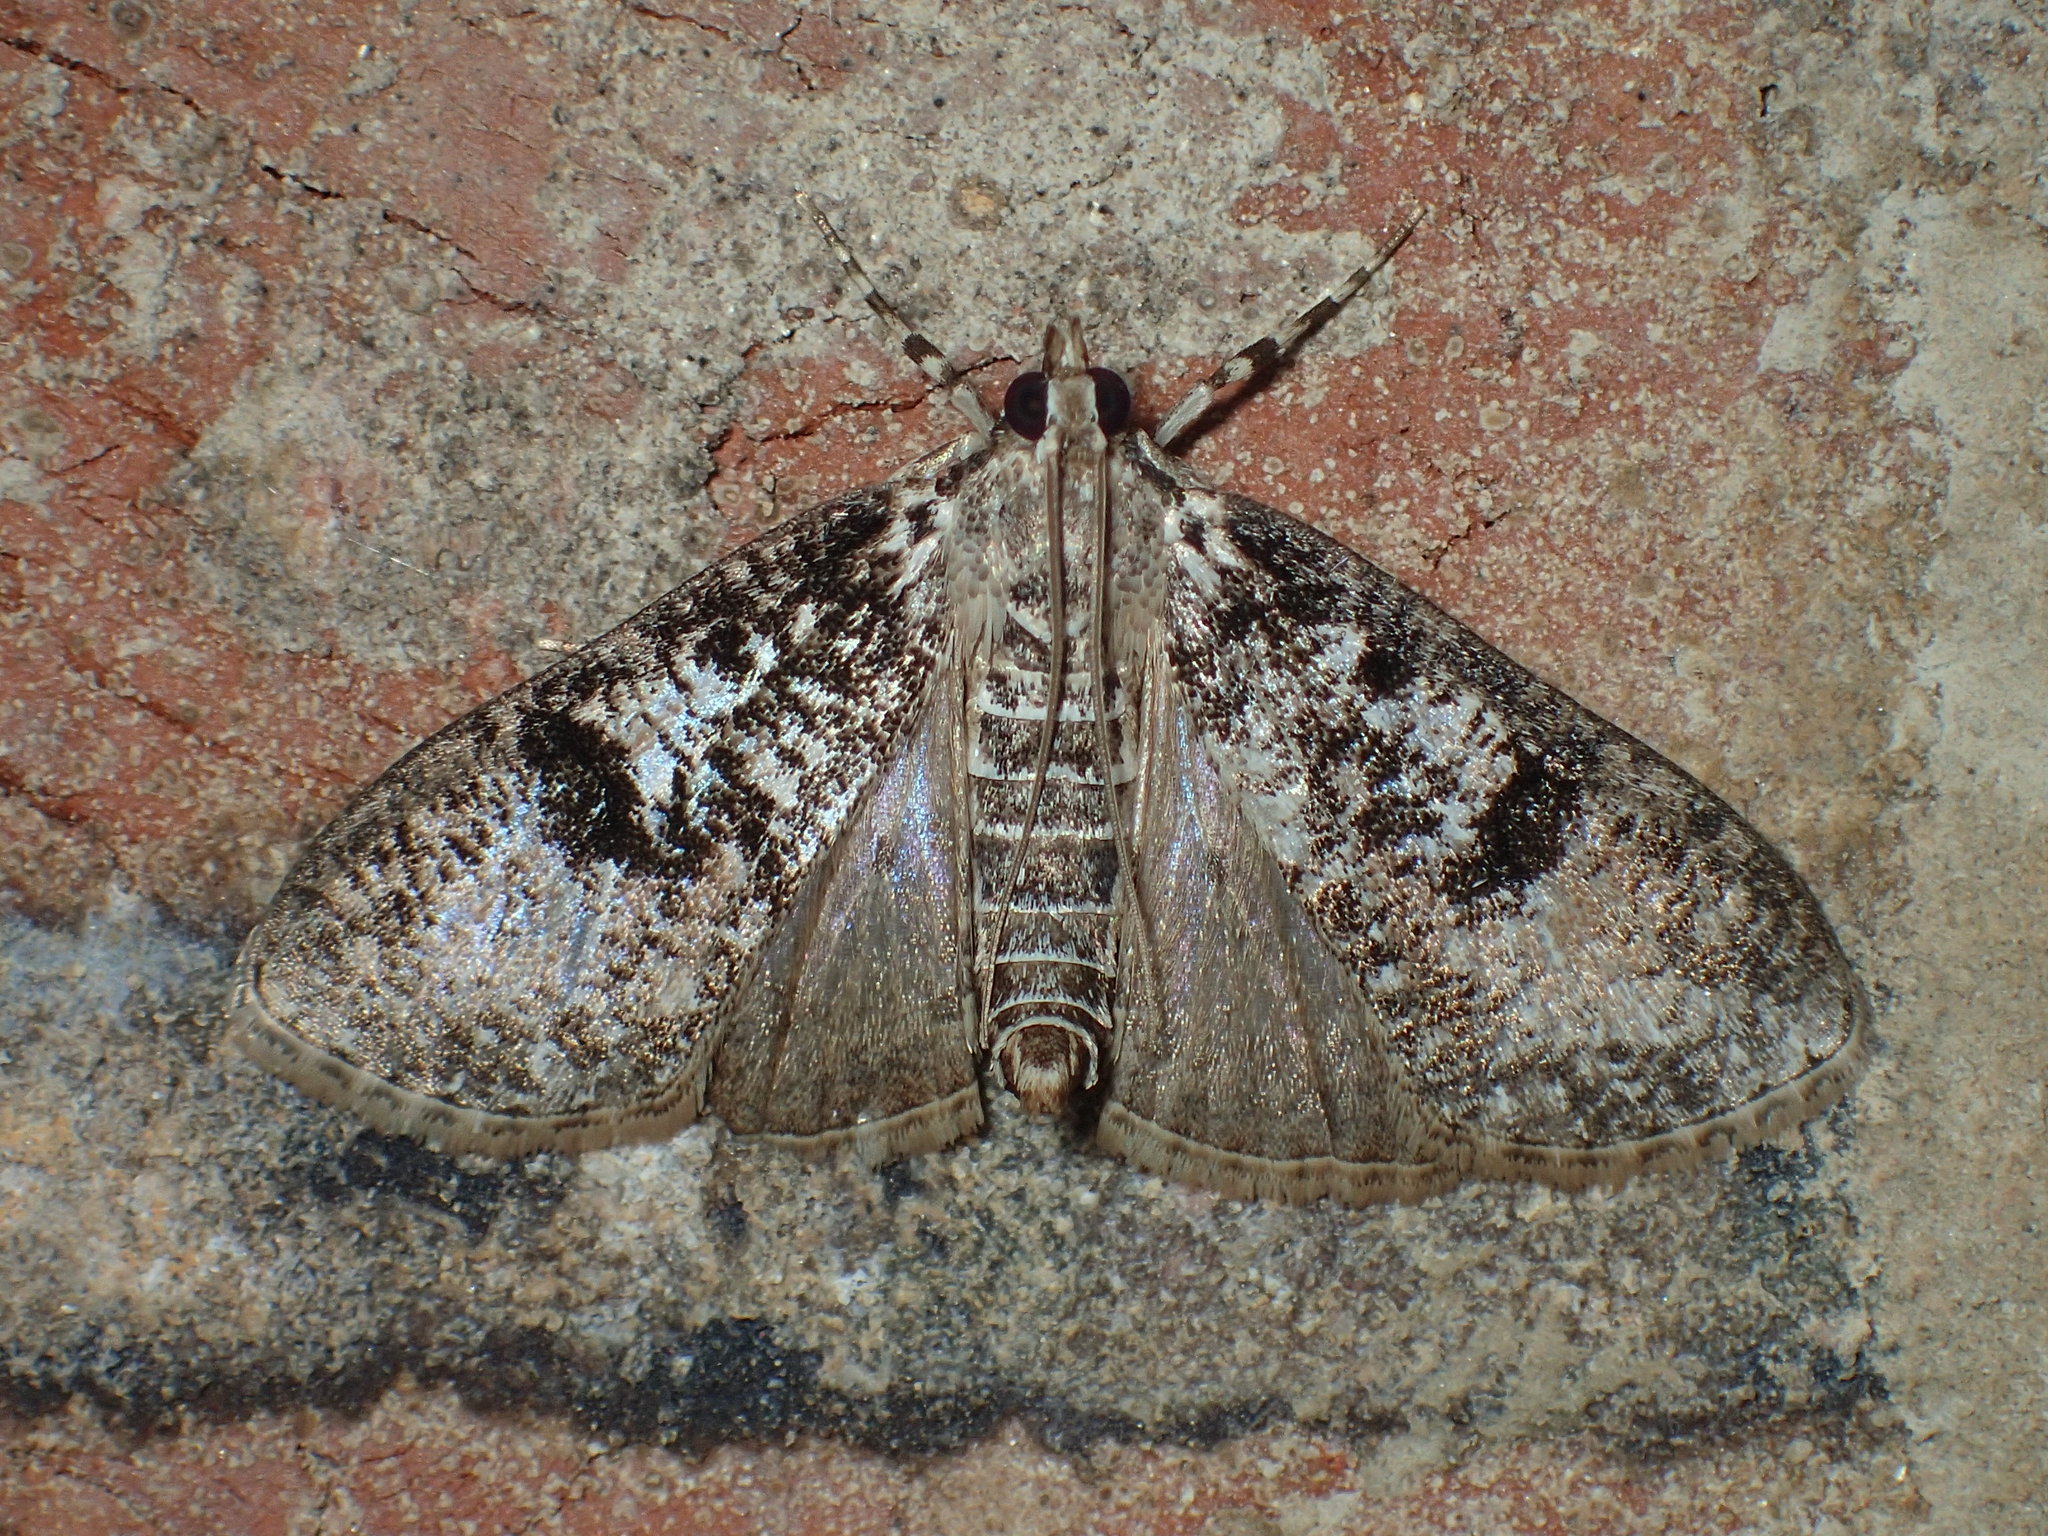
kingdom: Animalia
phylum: Arthropoda
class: Insecta
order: Lepidoptera
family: Crambidae
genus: Palpita
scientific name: Palpita magniferalis
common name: Splendid palpita moth
